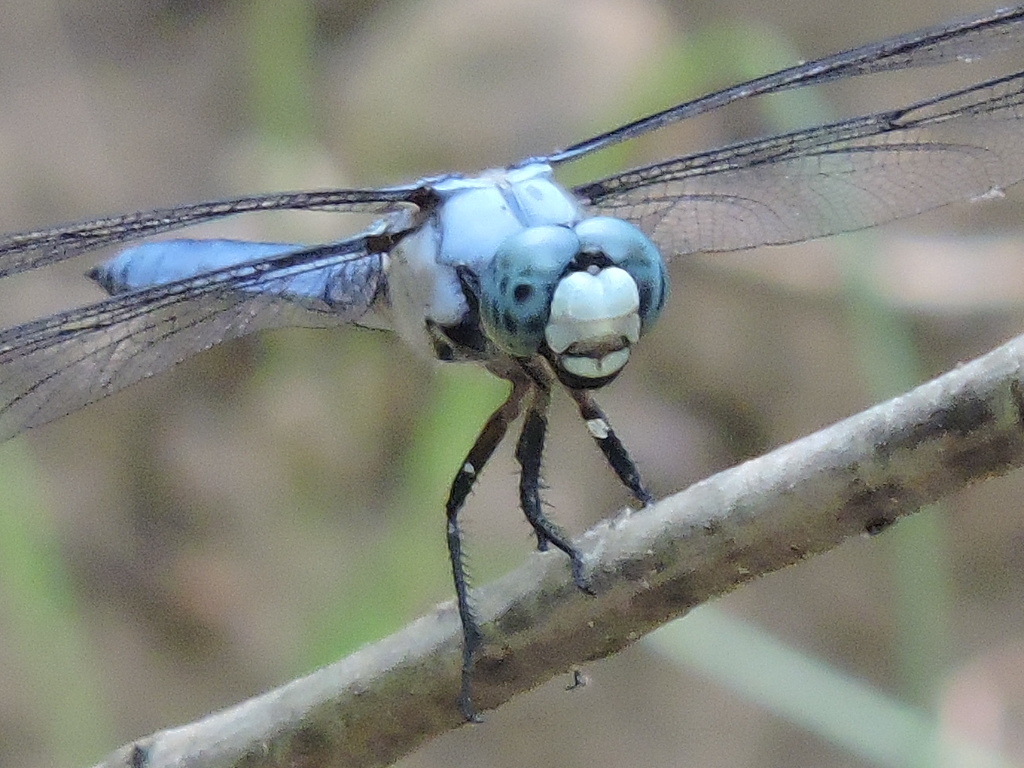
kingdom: Animalia
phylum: Arthropoda
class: Insecta
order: Odonata
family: Libellulidae
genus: Libellula
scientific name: Libellula vibrans
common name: Great blue skimmer
